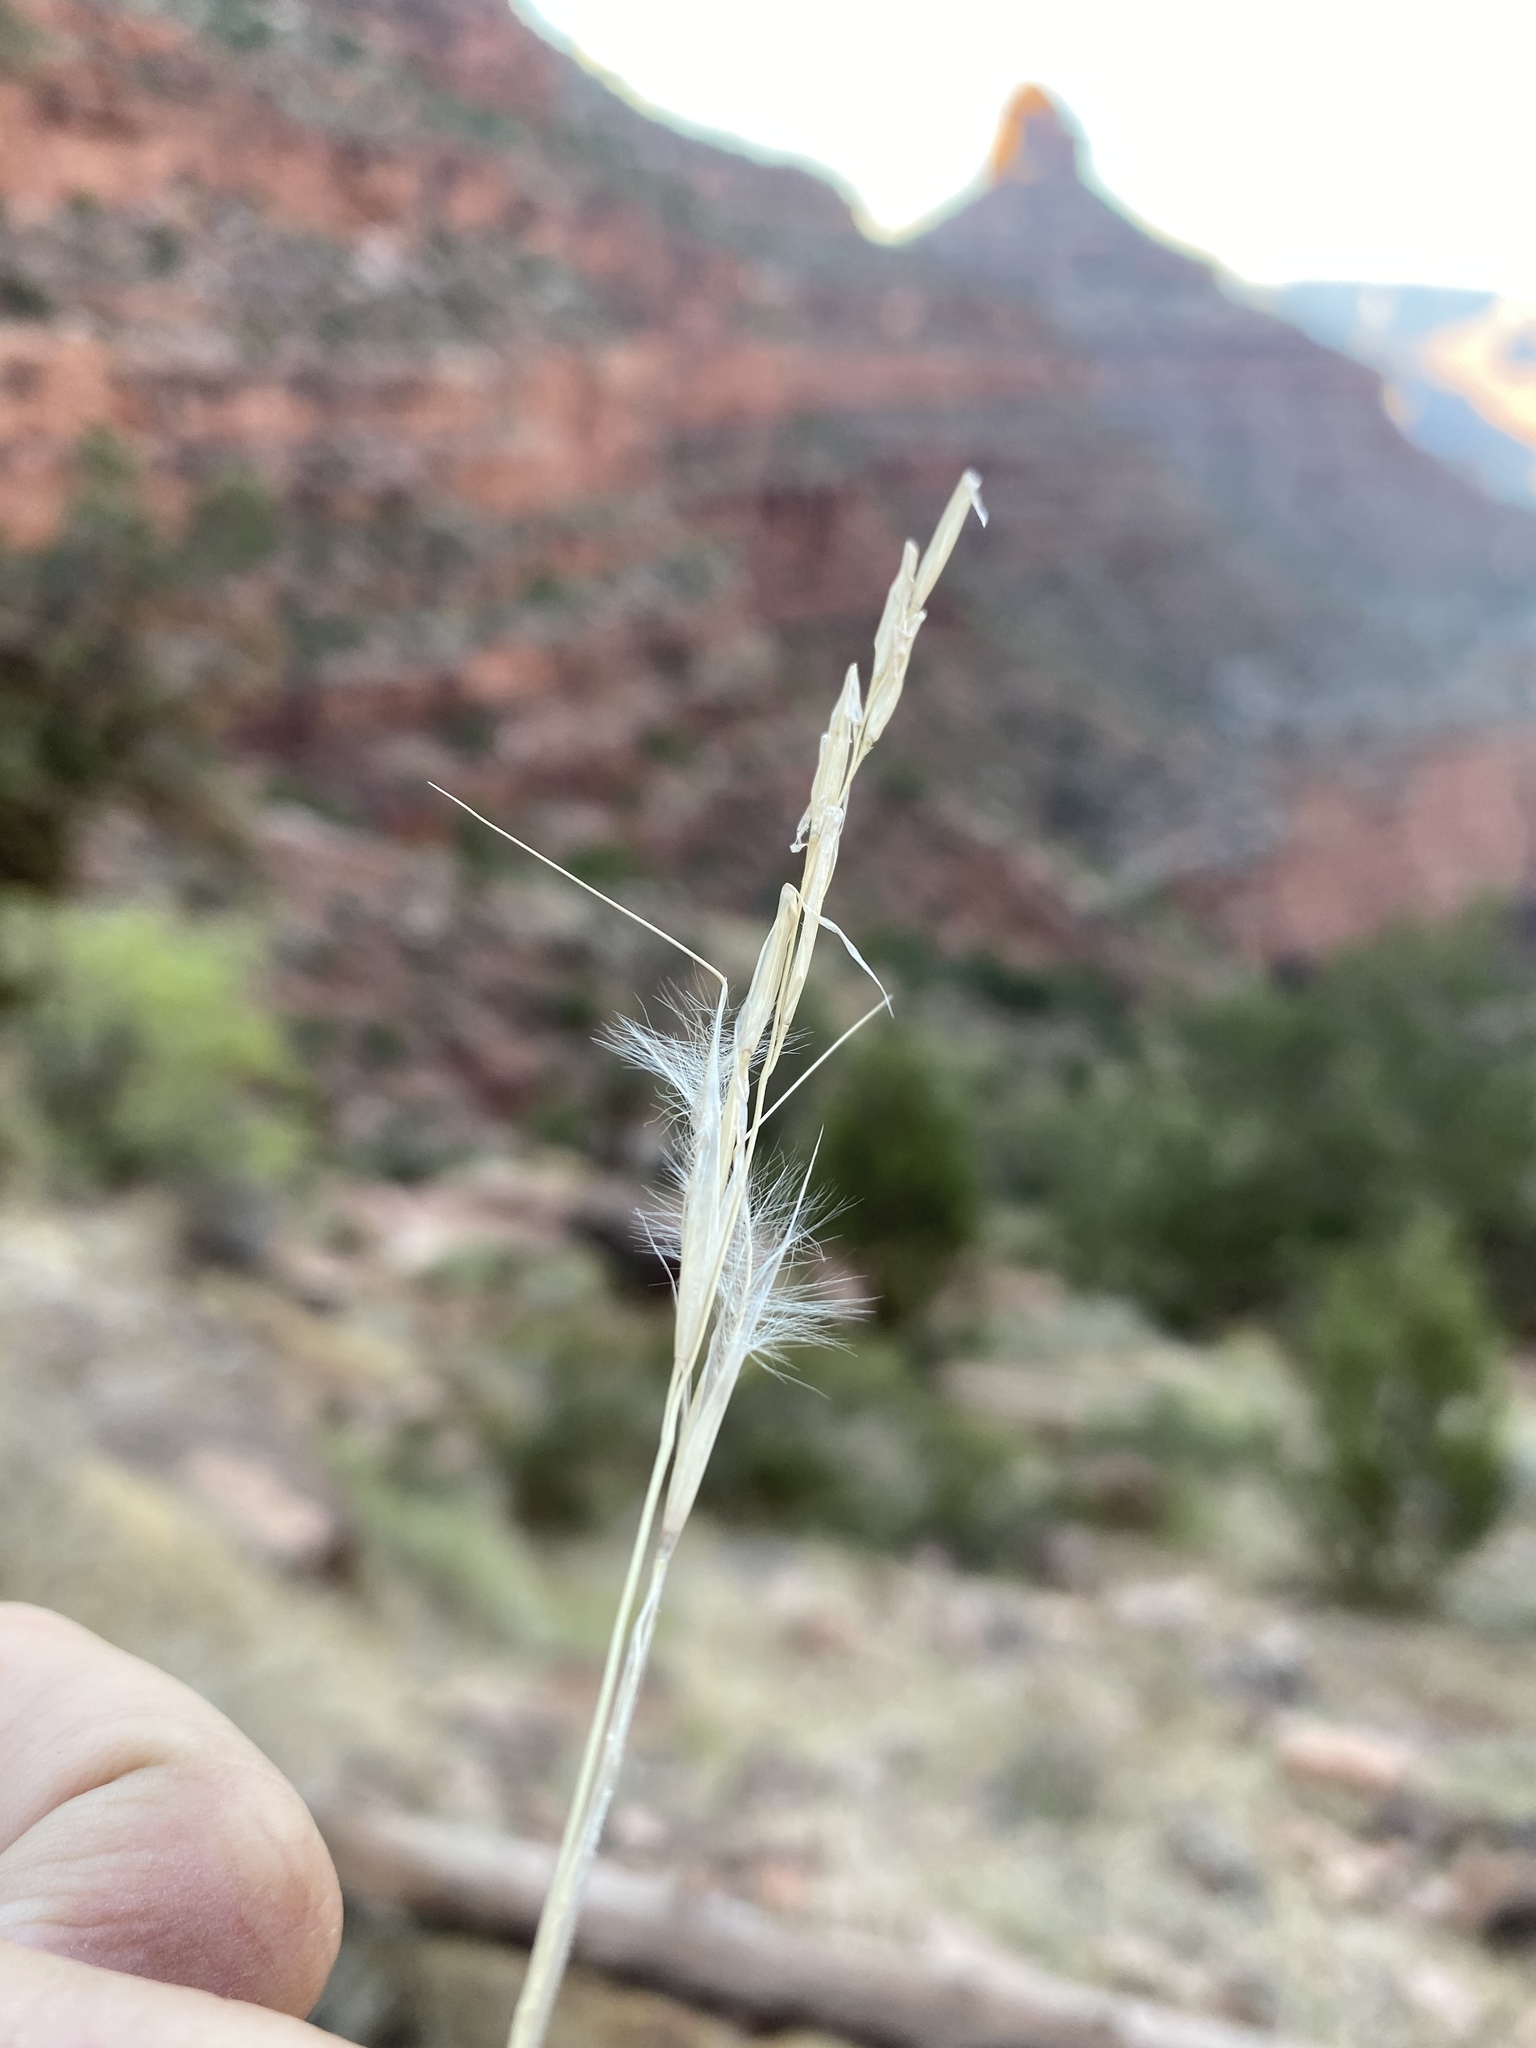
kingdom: Plantae
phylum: Tracheophyta
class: Liliopsida
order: Poales
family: Poaceae
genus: Pappostipa
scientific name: Pappostipa speciosa
